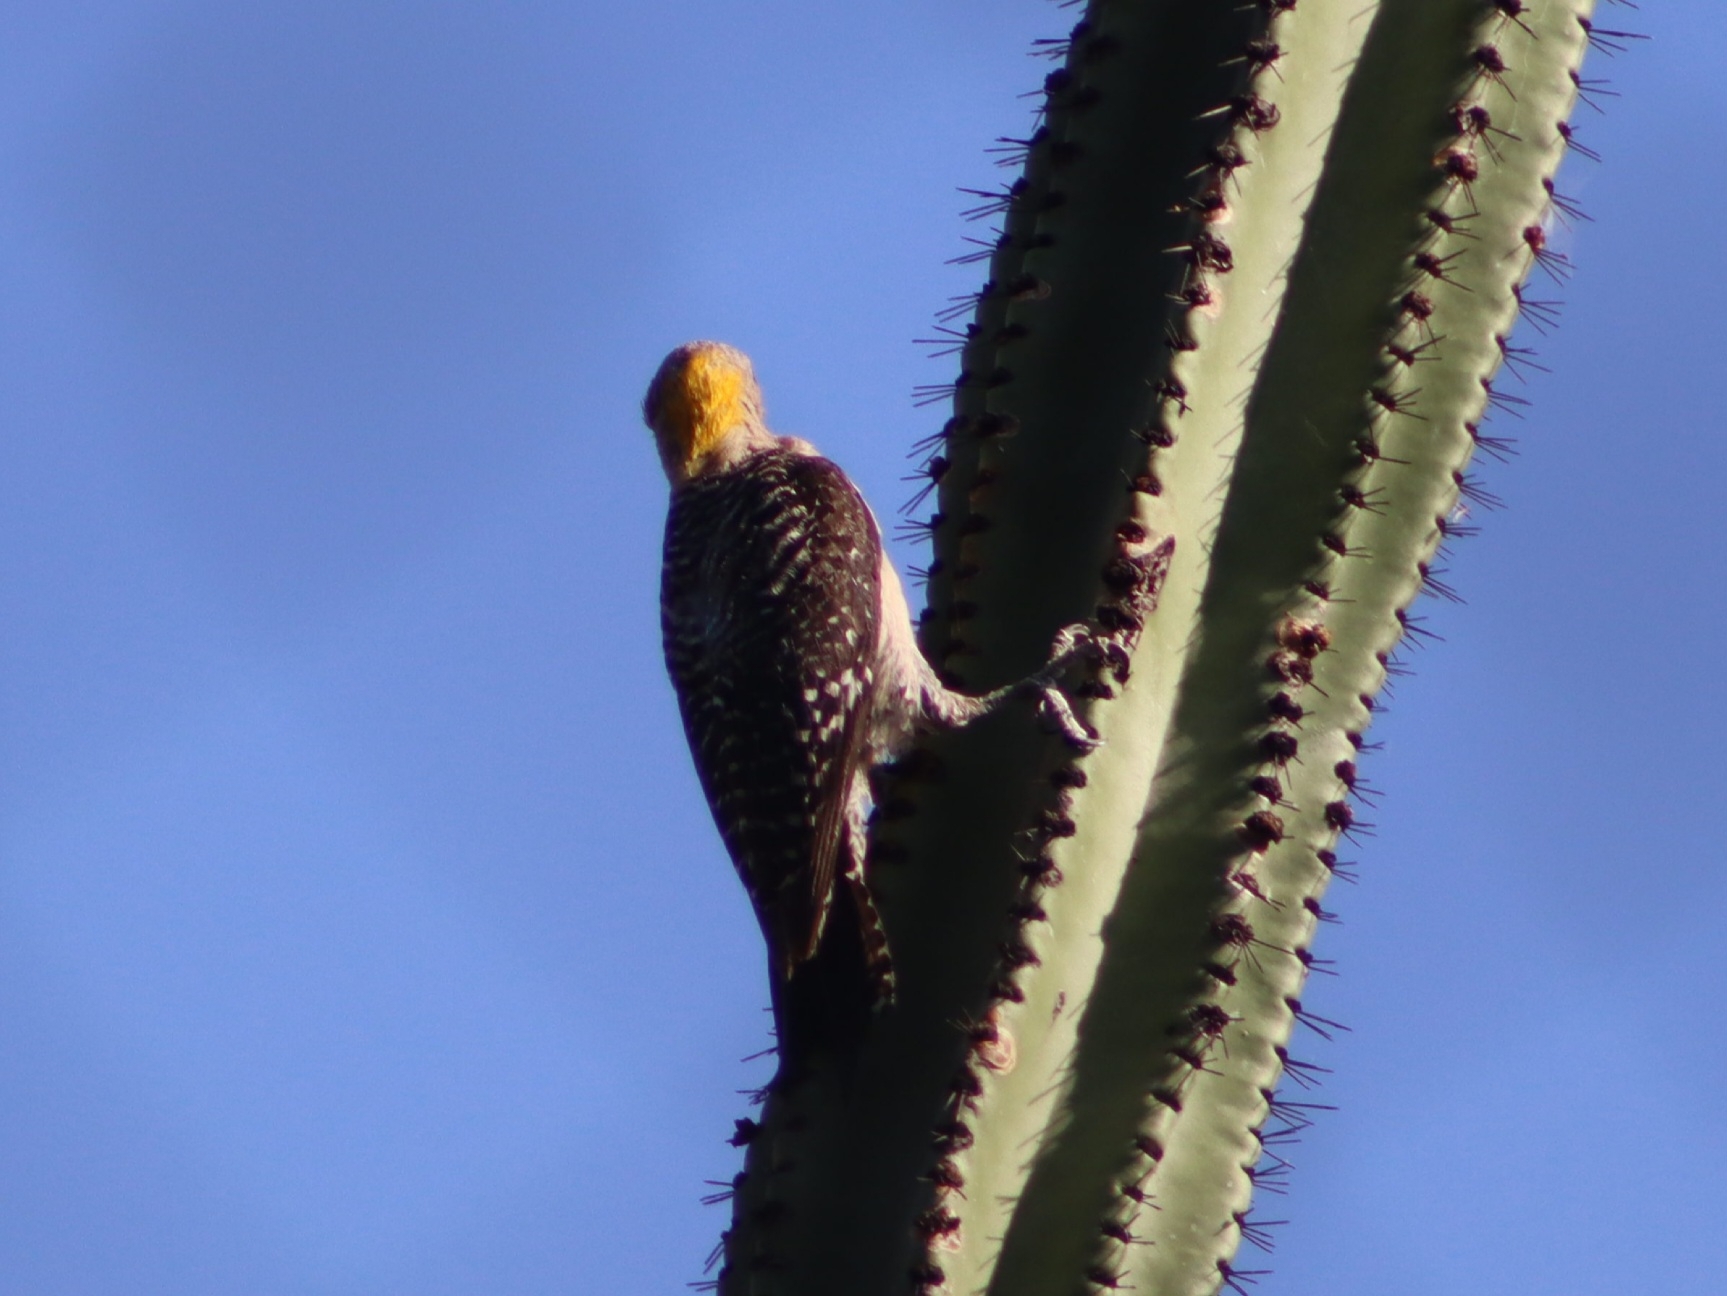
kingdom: Animalia
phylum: Chordata
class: Aves
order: Piciformes
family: Picidae
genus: Melanerpes
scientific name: Melanerpes aurifrons
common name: Golden-fronted woodpecker
